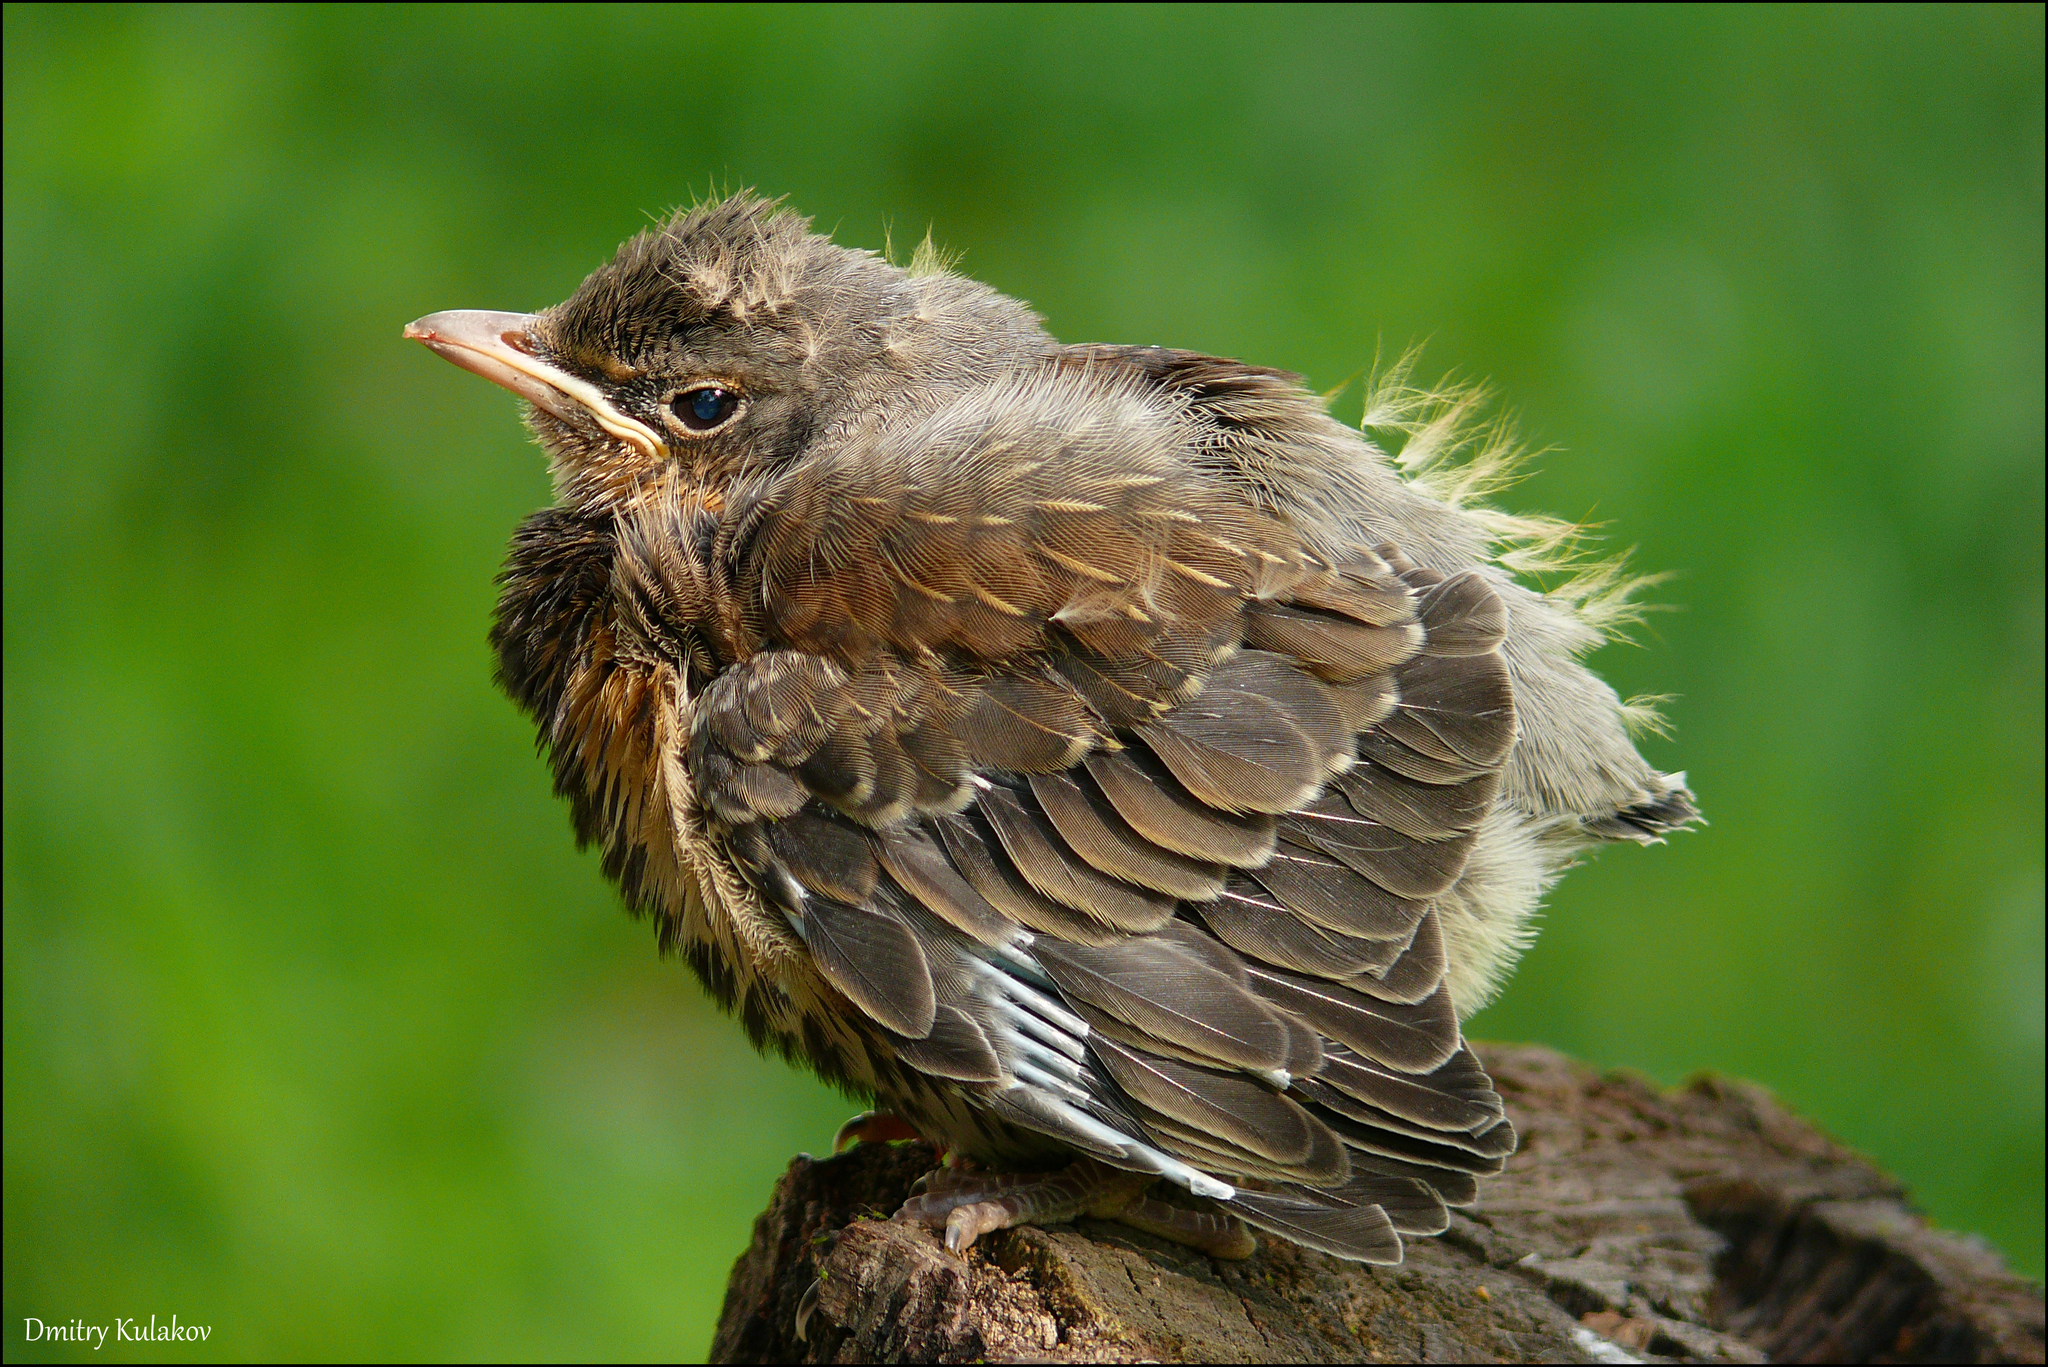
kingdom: Animalia
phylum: Chordata
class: Aves
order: Passeriformes
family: Turdidae
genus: Turdus
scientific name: Turdus pilaris
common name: Fieldfare
